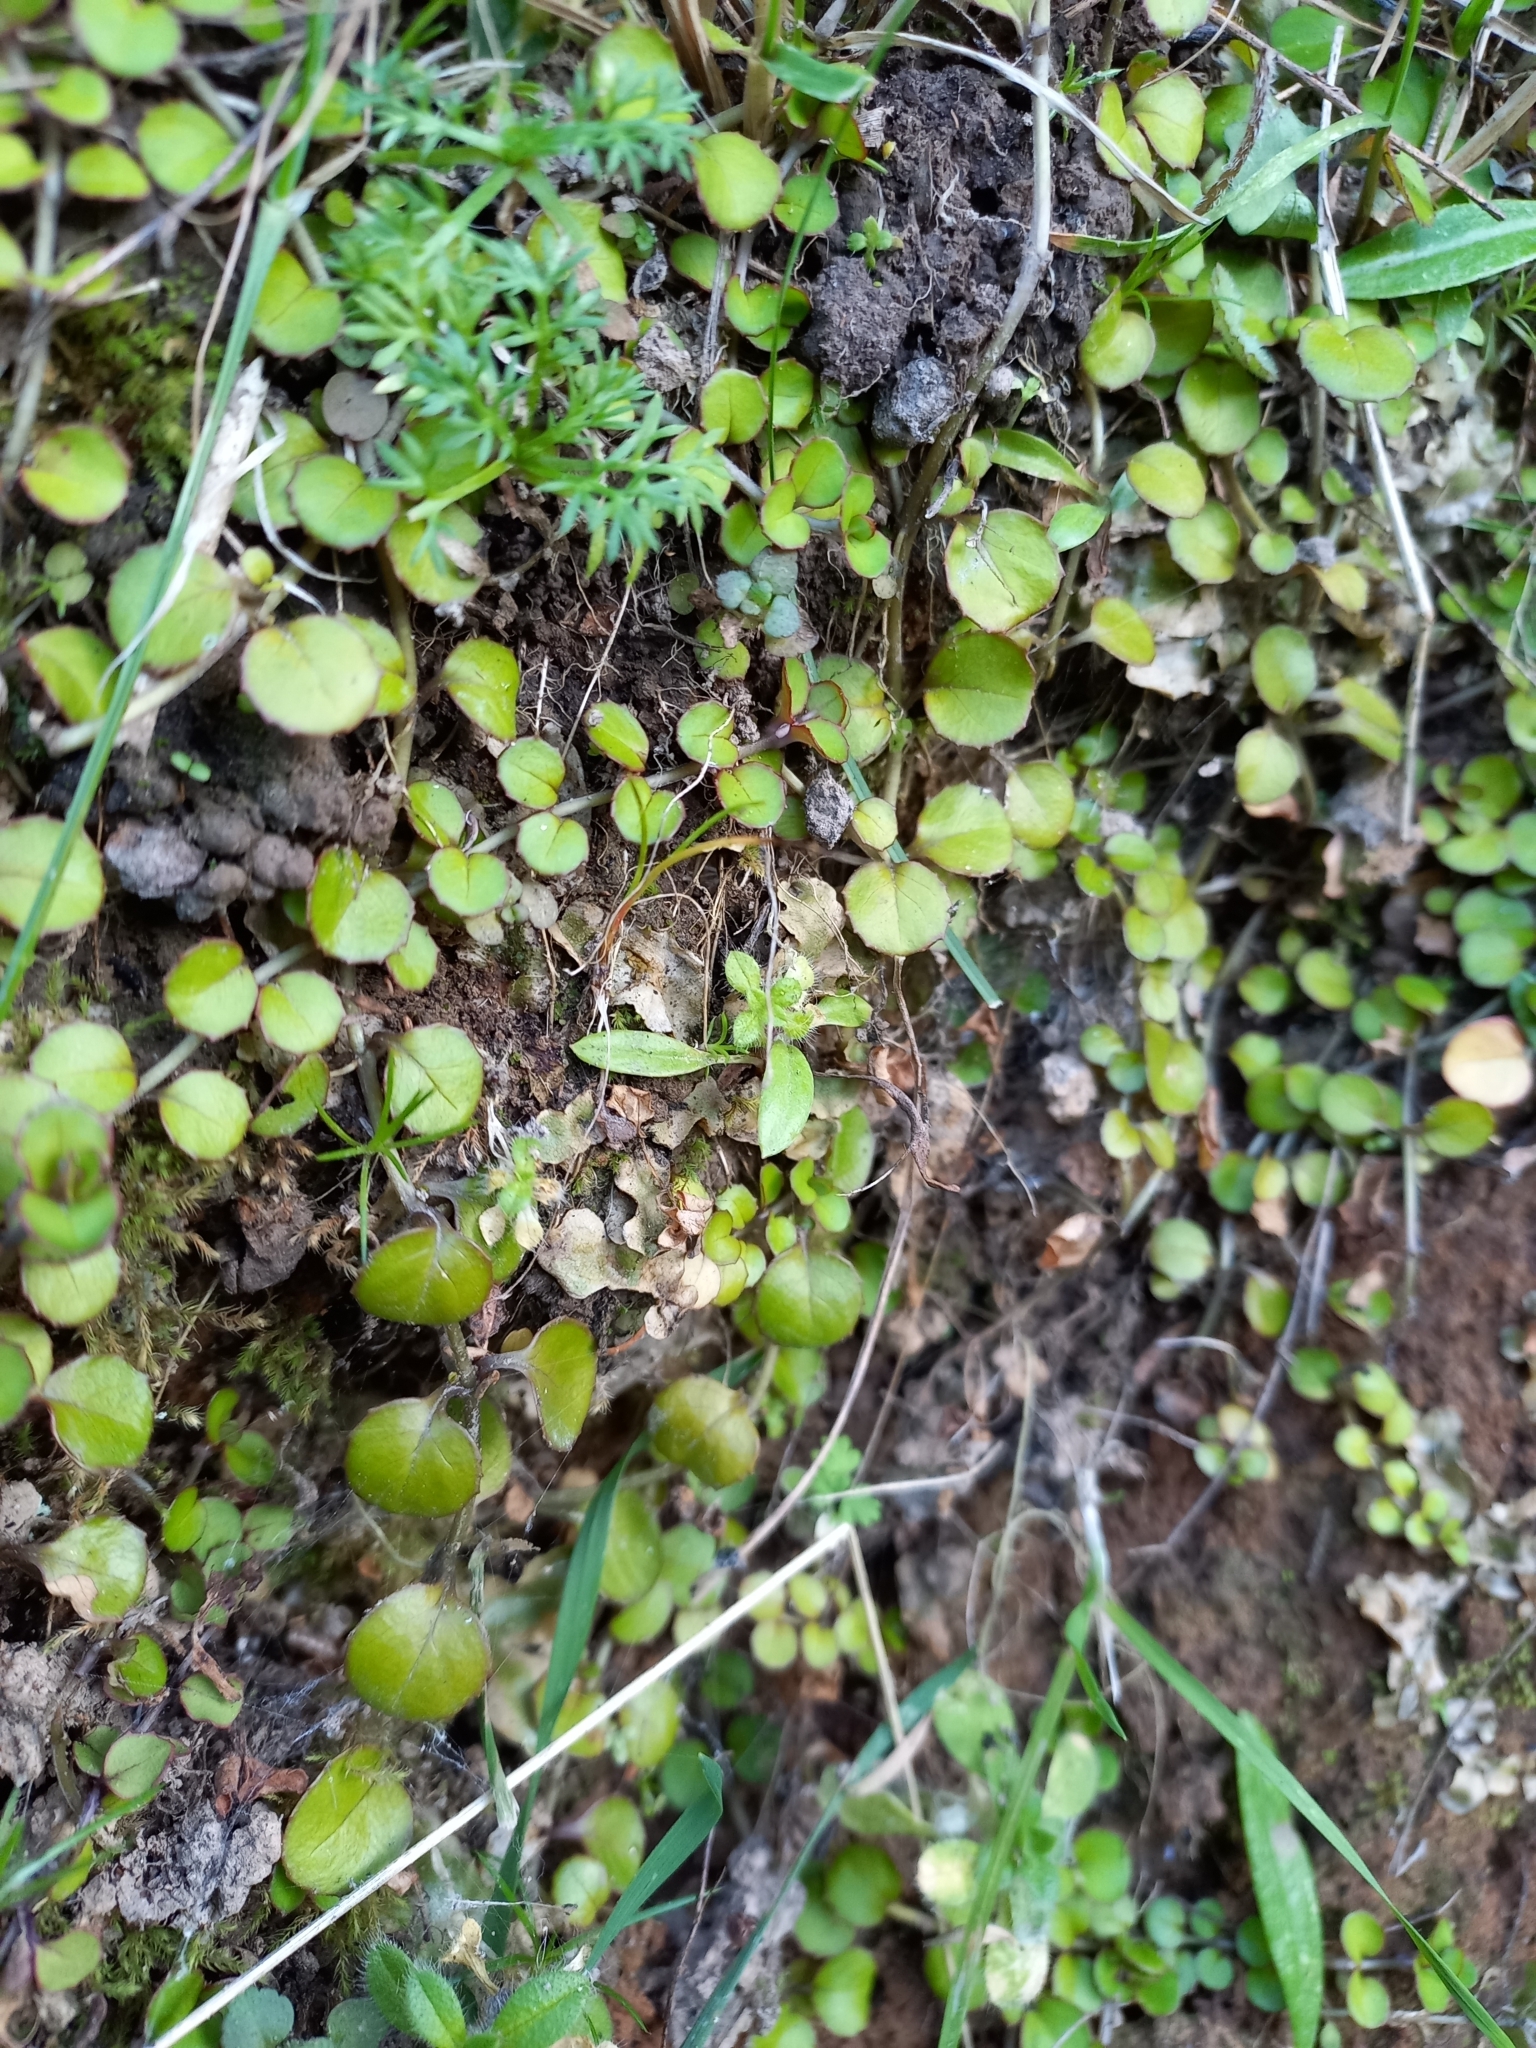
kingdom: Plantae
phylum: Tracheophyta
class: Magnoliopsida
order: Myrtales
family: Onagraceae
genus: Epilobium
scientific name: Epilobium nummularifolium
